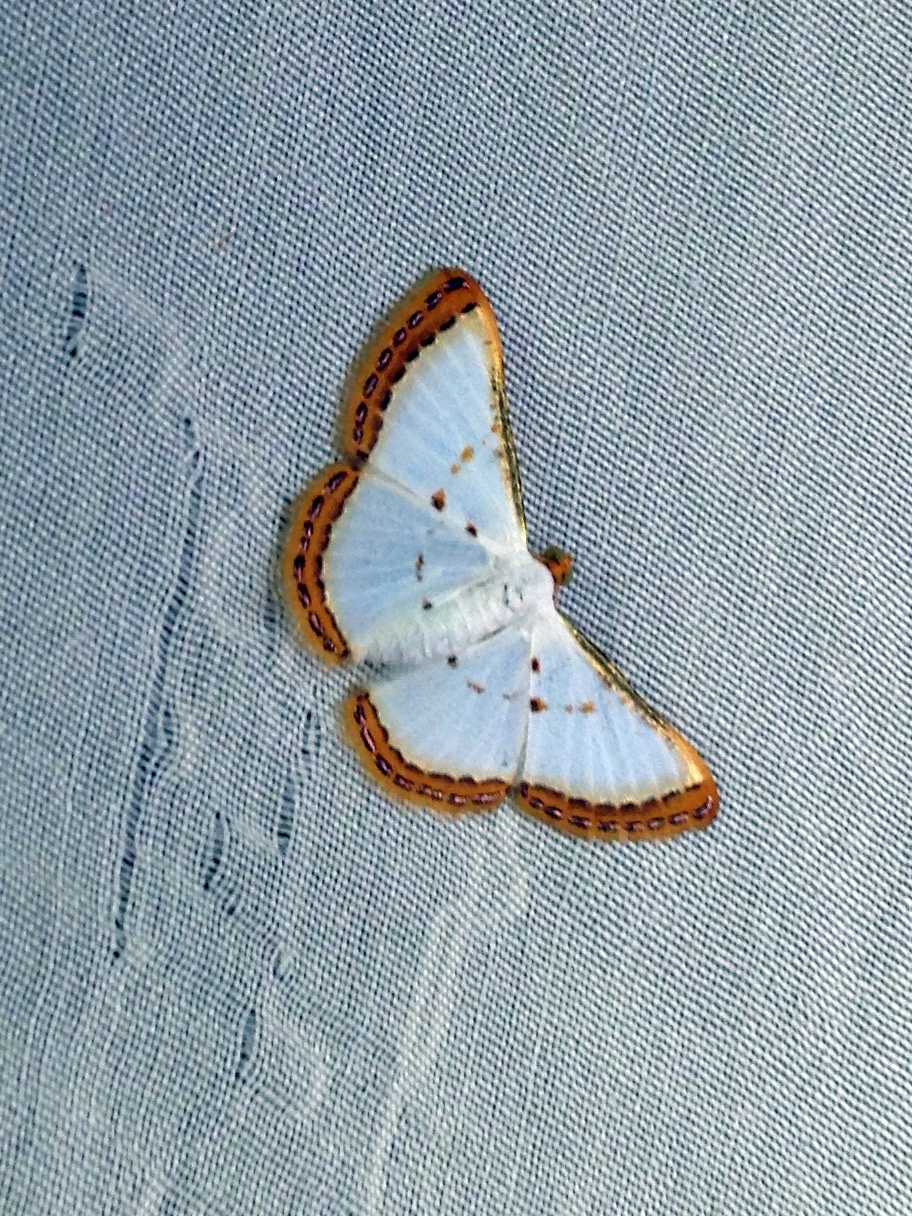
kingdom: Animalia
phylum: Arthropoda
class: Insecta
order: Lepidoptera
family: Geometridae
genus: Leuciris
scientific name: Leuciris institata
